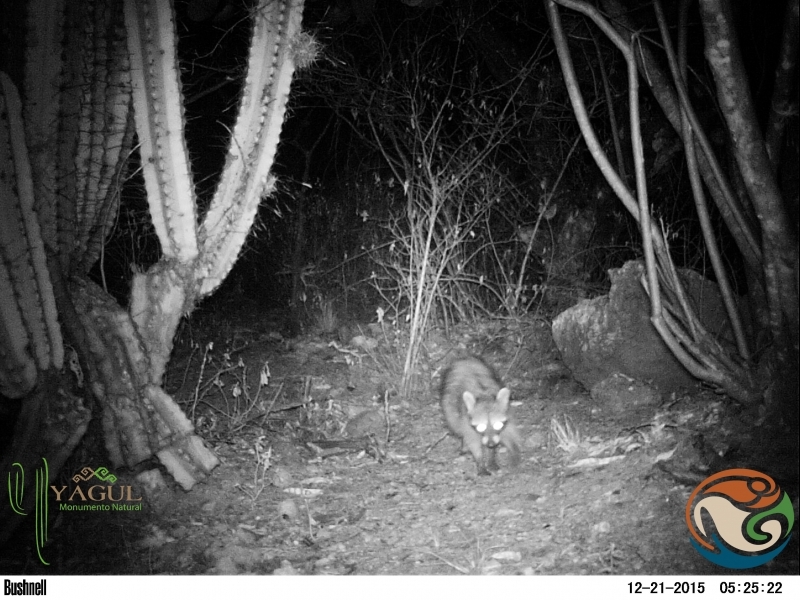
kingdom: Animalia
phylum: Chordata
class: Mammalia
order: Carnivora
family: Procyonidae
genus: Procyon
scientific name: Procyon lotor
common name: Raccoon
